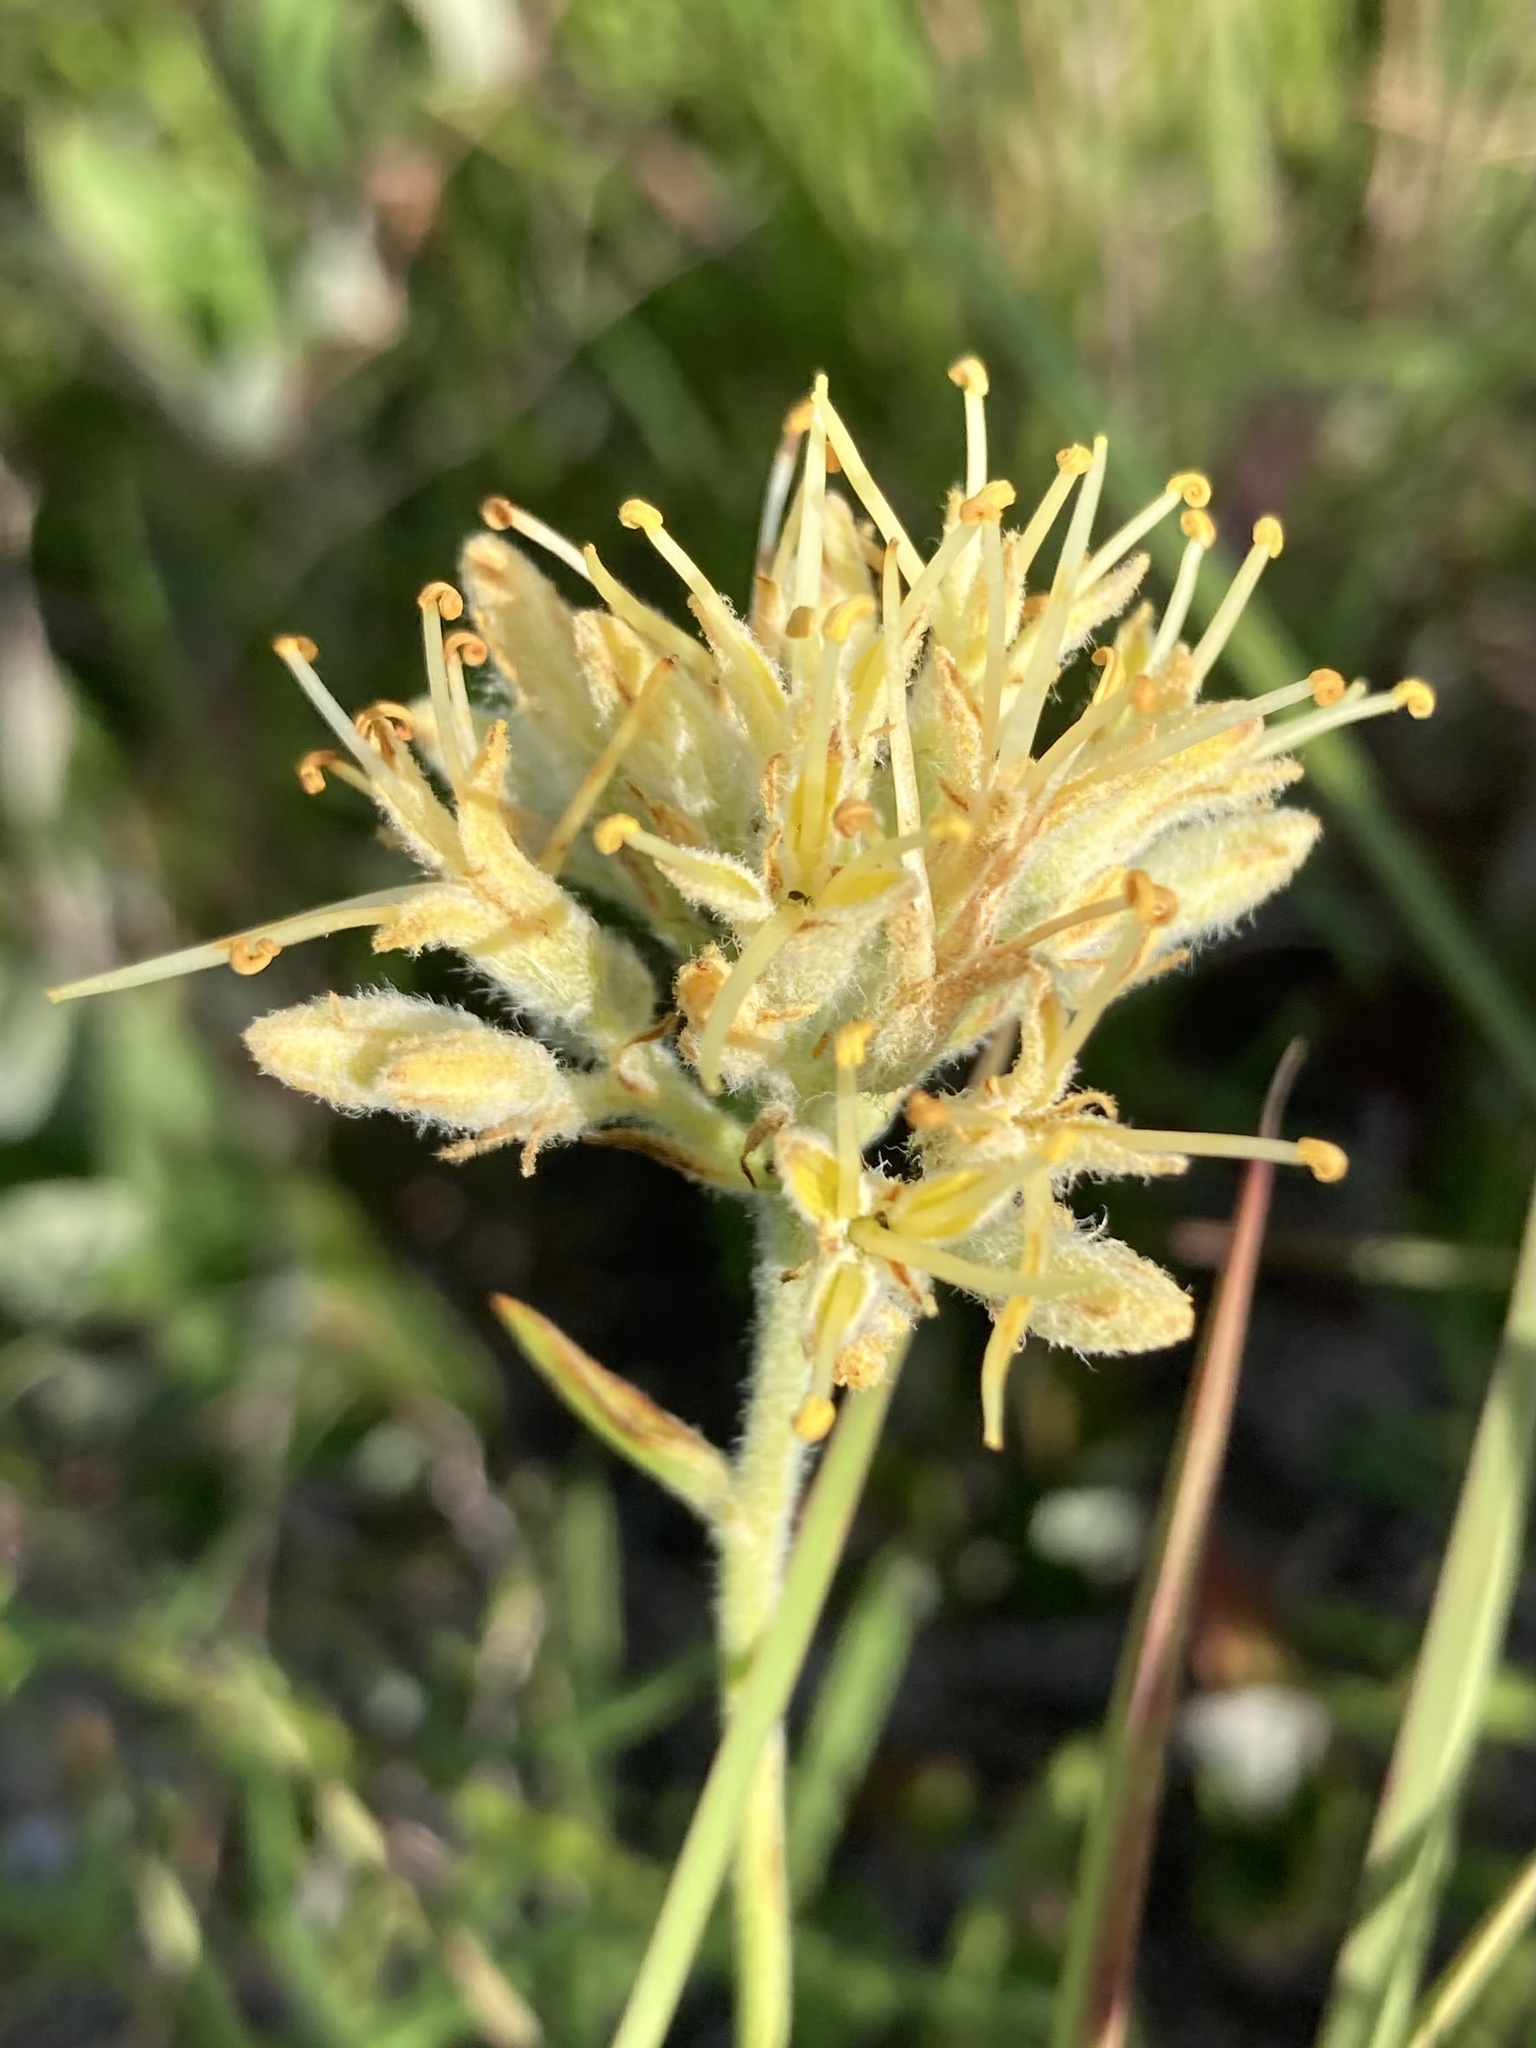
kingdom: Plantae
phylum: Tracheophyta
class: Liliopsida
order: Commelinales
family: Haemodoraceae
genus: Lachnanthes
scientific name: Lachnanthes caroliana
